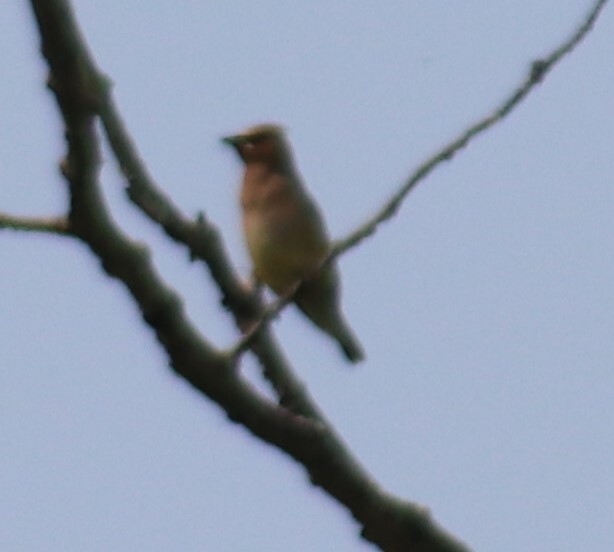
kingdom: Animalia
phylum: Chordata
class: Aves
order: Passeriformes
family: Bombycillidae
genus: Bombycilla
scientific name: Bombycilla cedrorum
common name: Cedar waxwing
